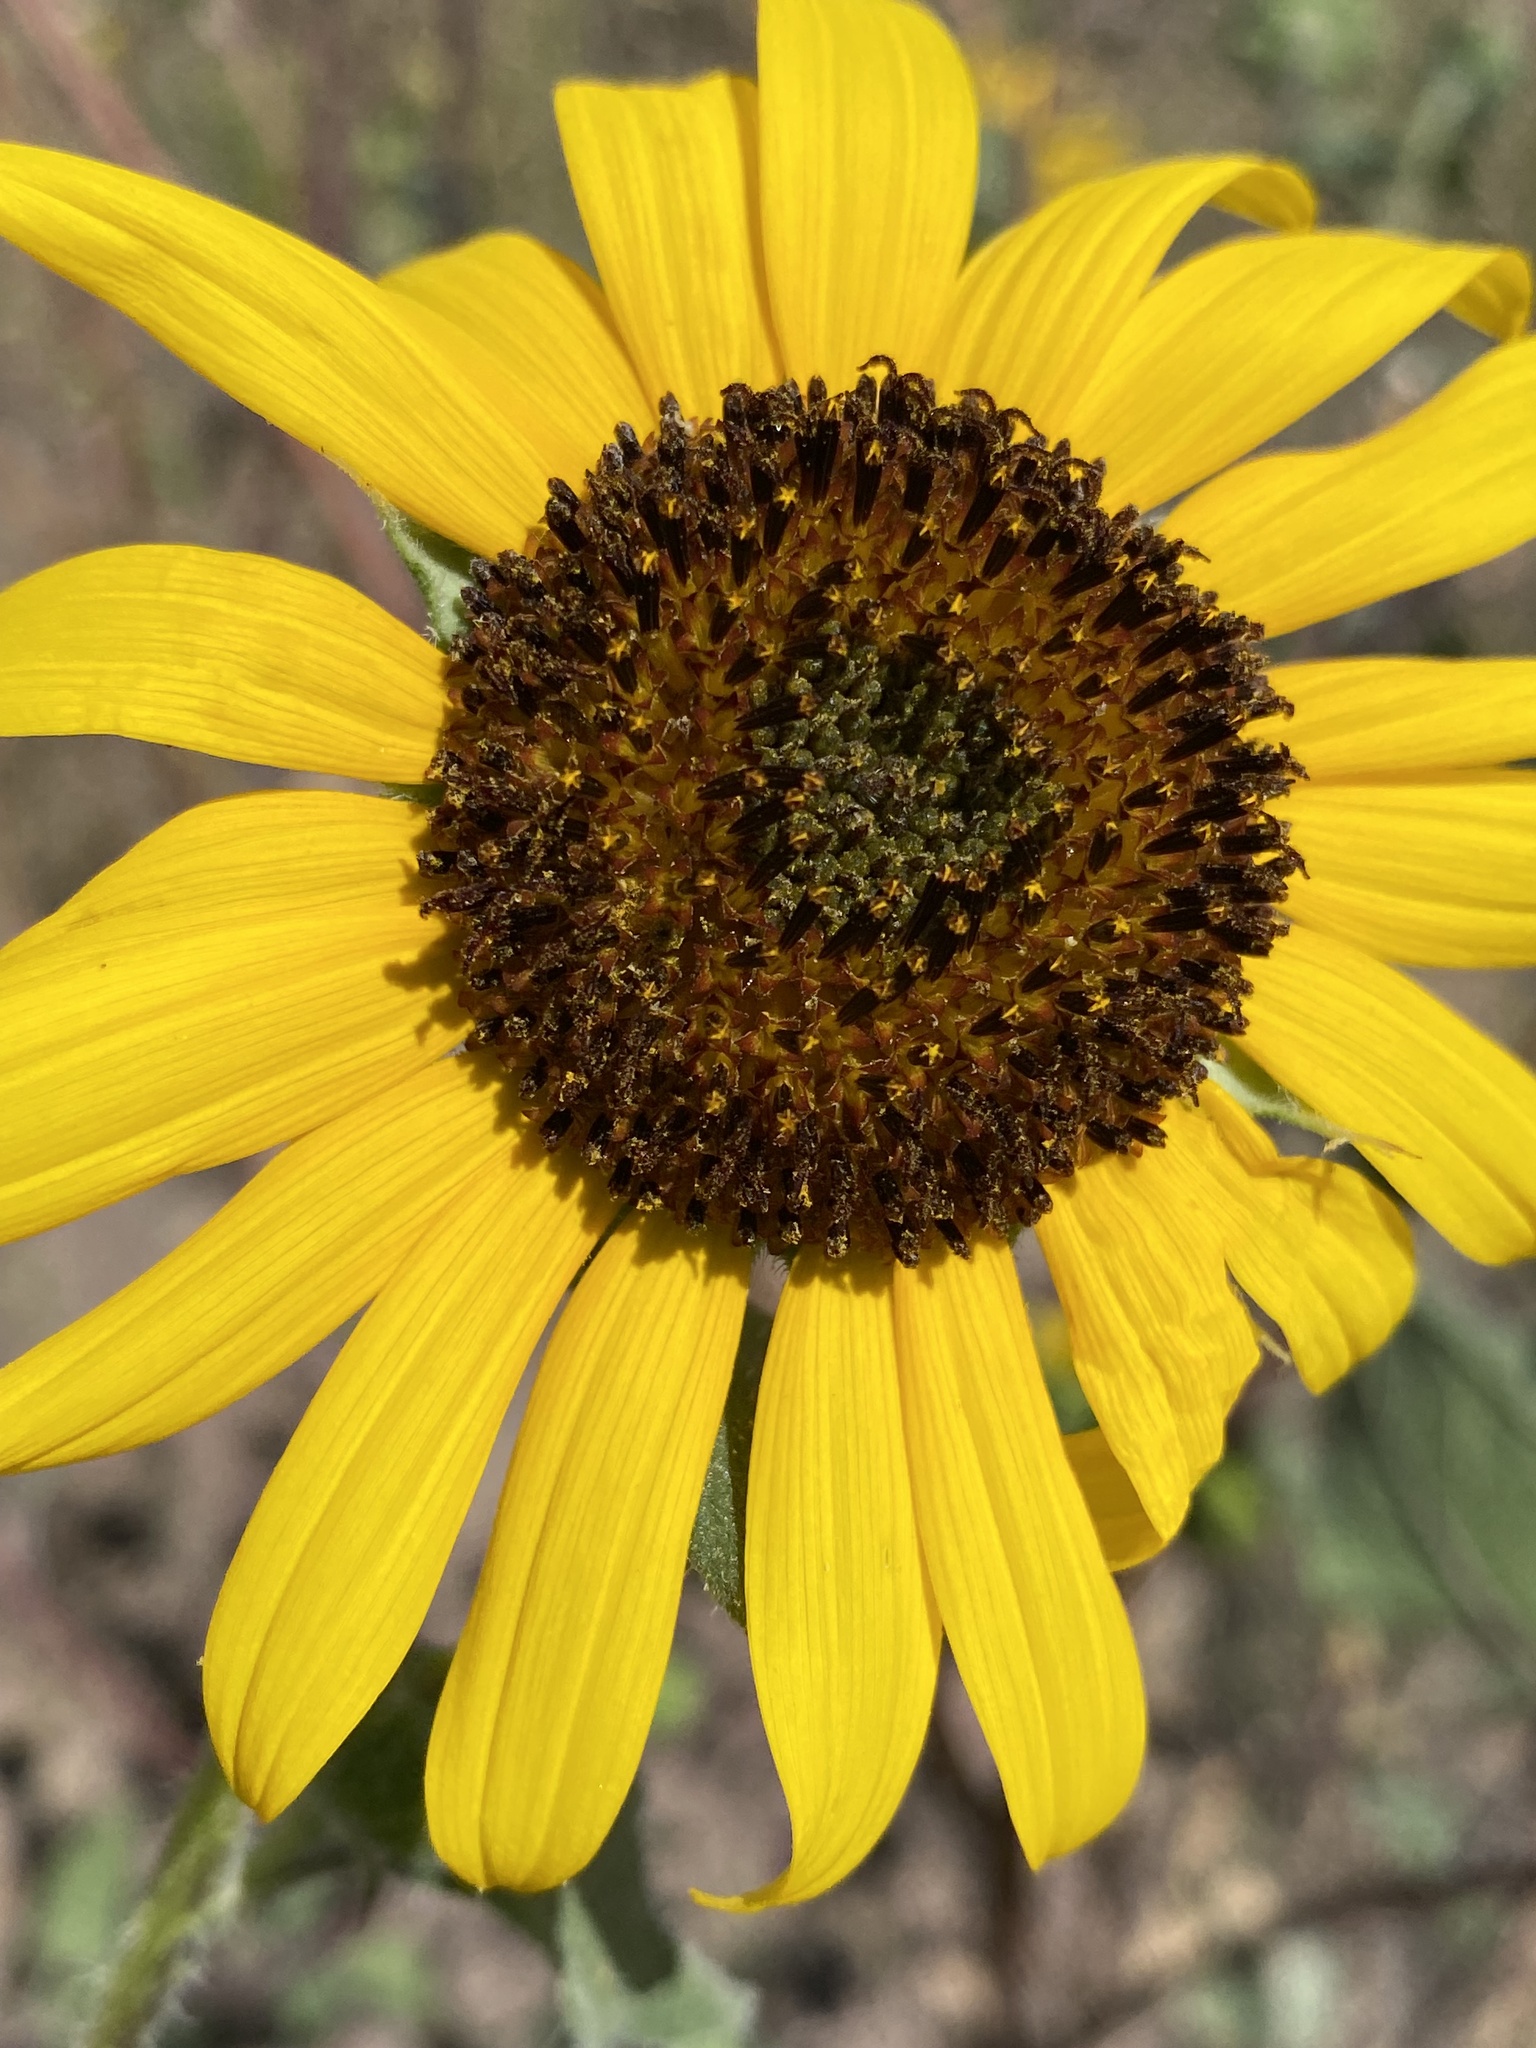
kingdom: Plantae
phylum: Tracheophyta
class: Magnoliopsida
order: Asterales
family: Asteraceae
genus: Helianthus
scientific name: Helianthus annuus
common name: Sunflower
